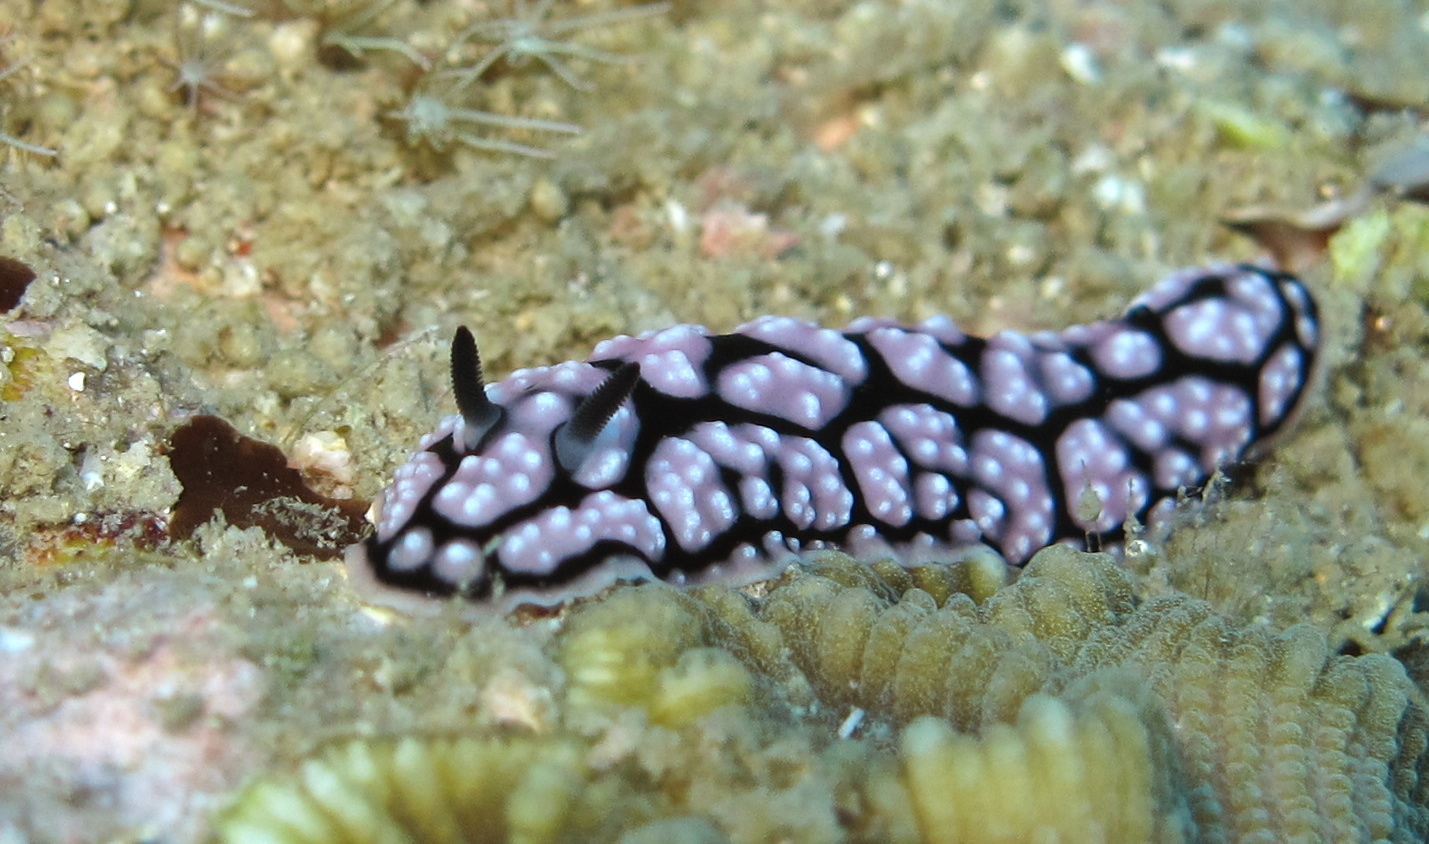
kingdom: Animalia
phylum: Mollusca
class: Gastropoda
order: Nudibranchia
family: Phyllidiidae
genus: Phyllidiella
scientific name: Phyllidiella pustulosa
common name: Pustular phyllidia
